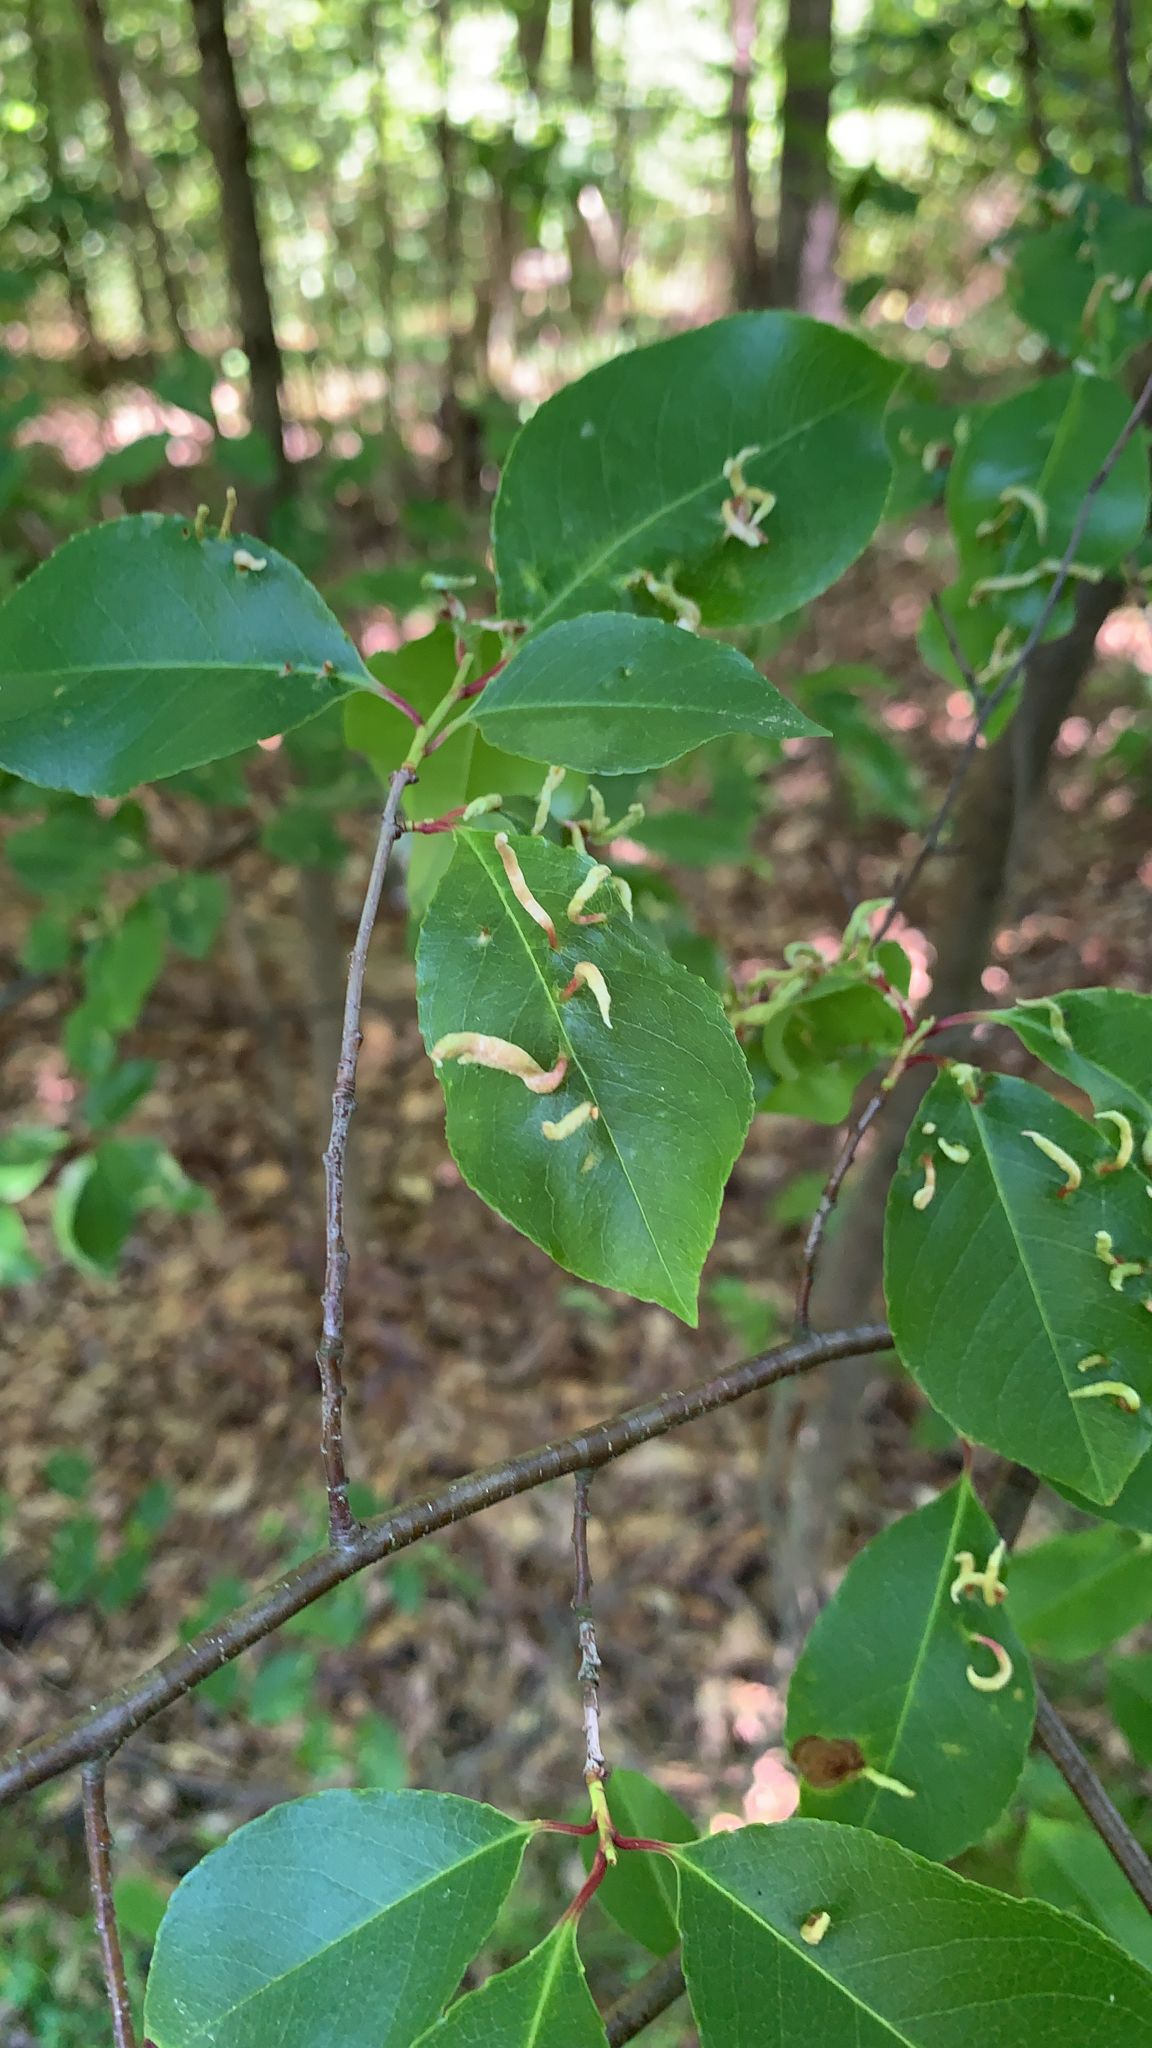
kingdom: Animalia
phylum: Arthropoda
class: Arachnida
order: Trombidiformes
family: Eriophyidae
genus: Eriophyes
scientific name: Eriophyes
